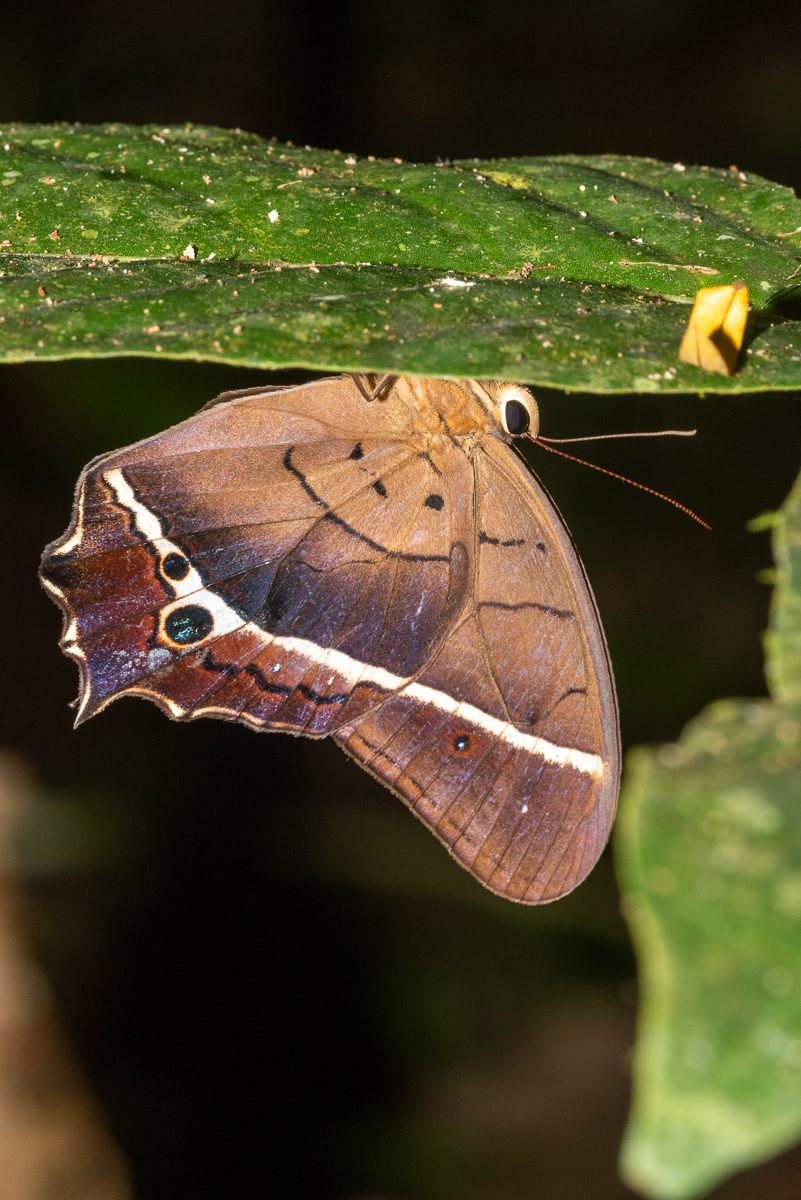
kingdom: Animalia
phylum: Arthropoda
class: Insecta
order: Lepidoptera
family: Nymphalidae
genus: Antirrhea
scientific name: Antirrhea philoctetes
